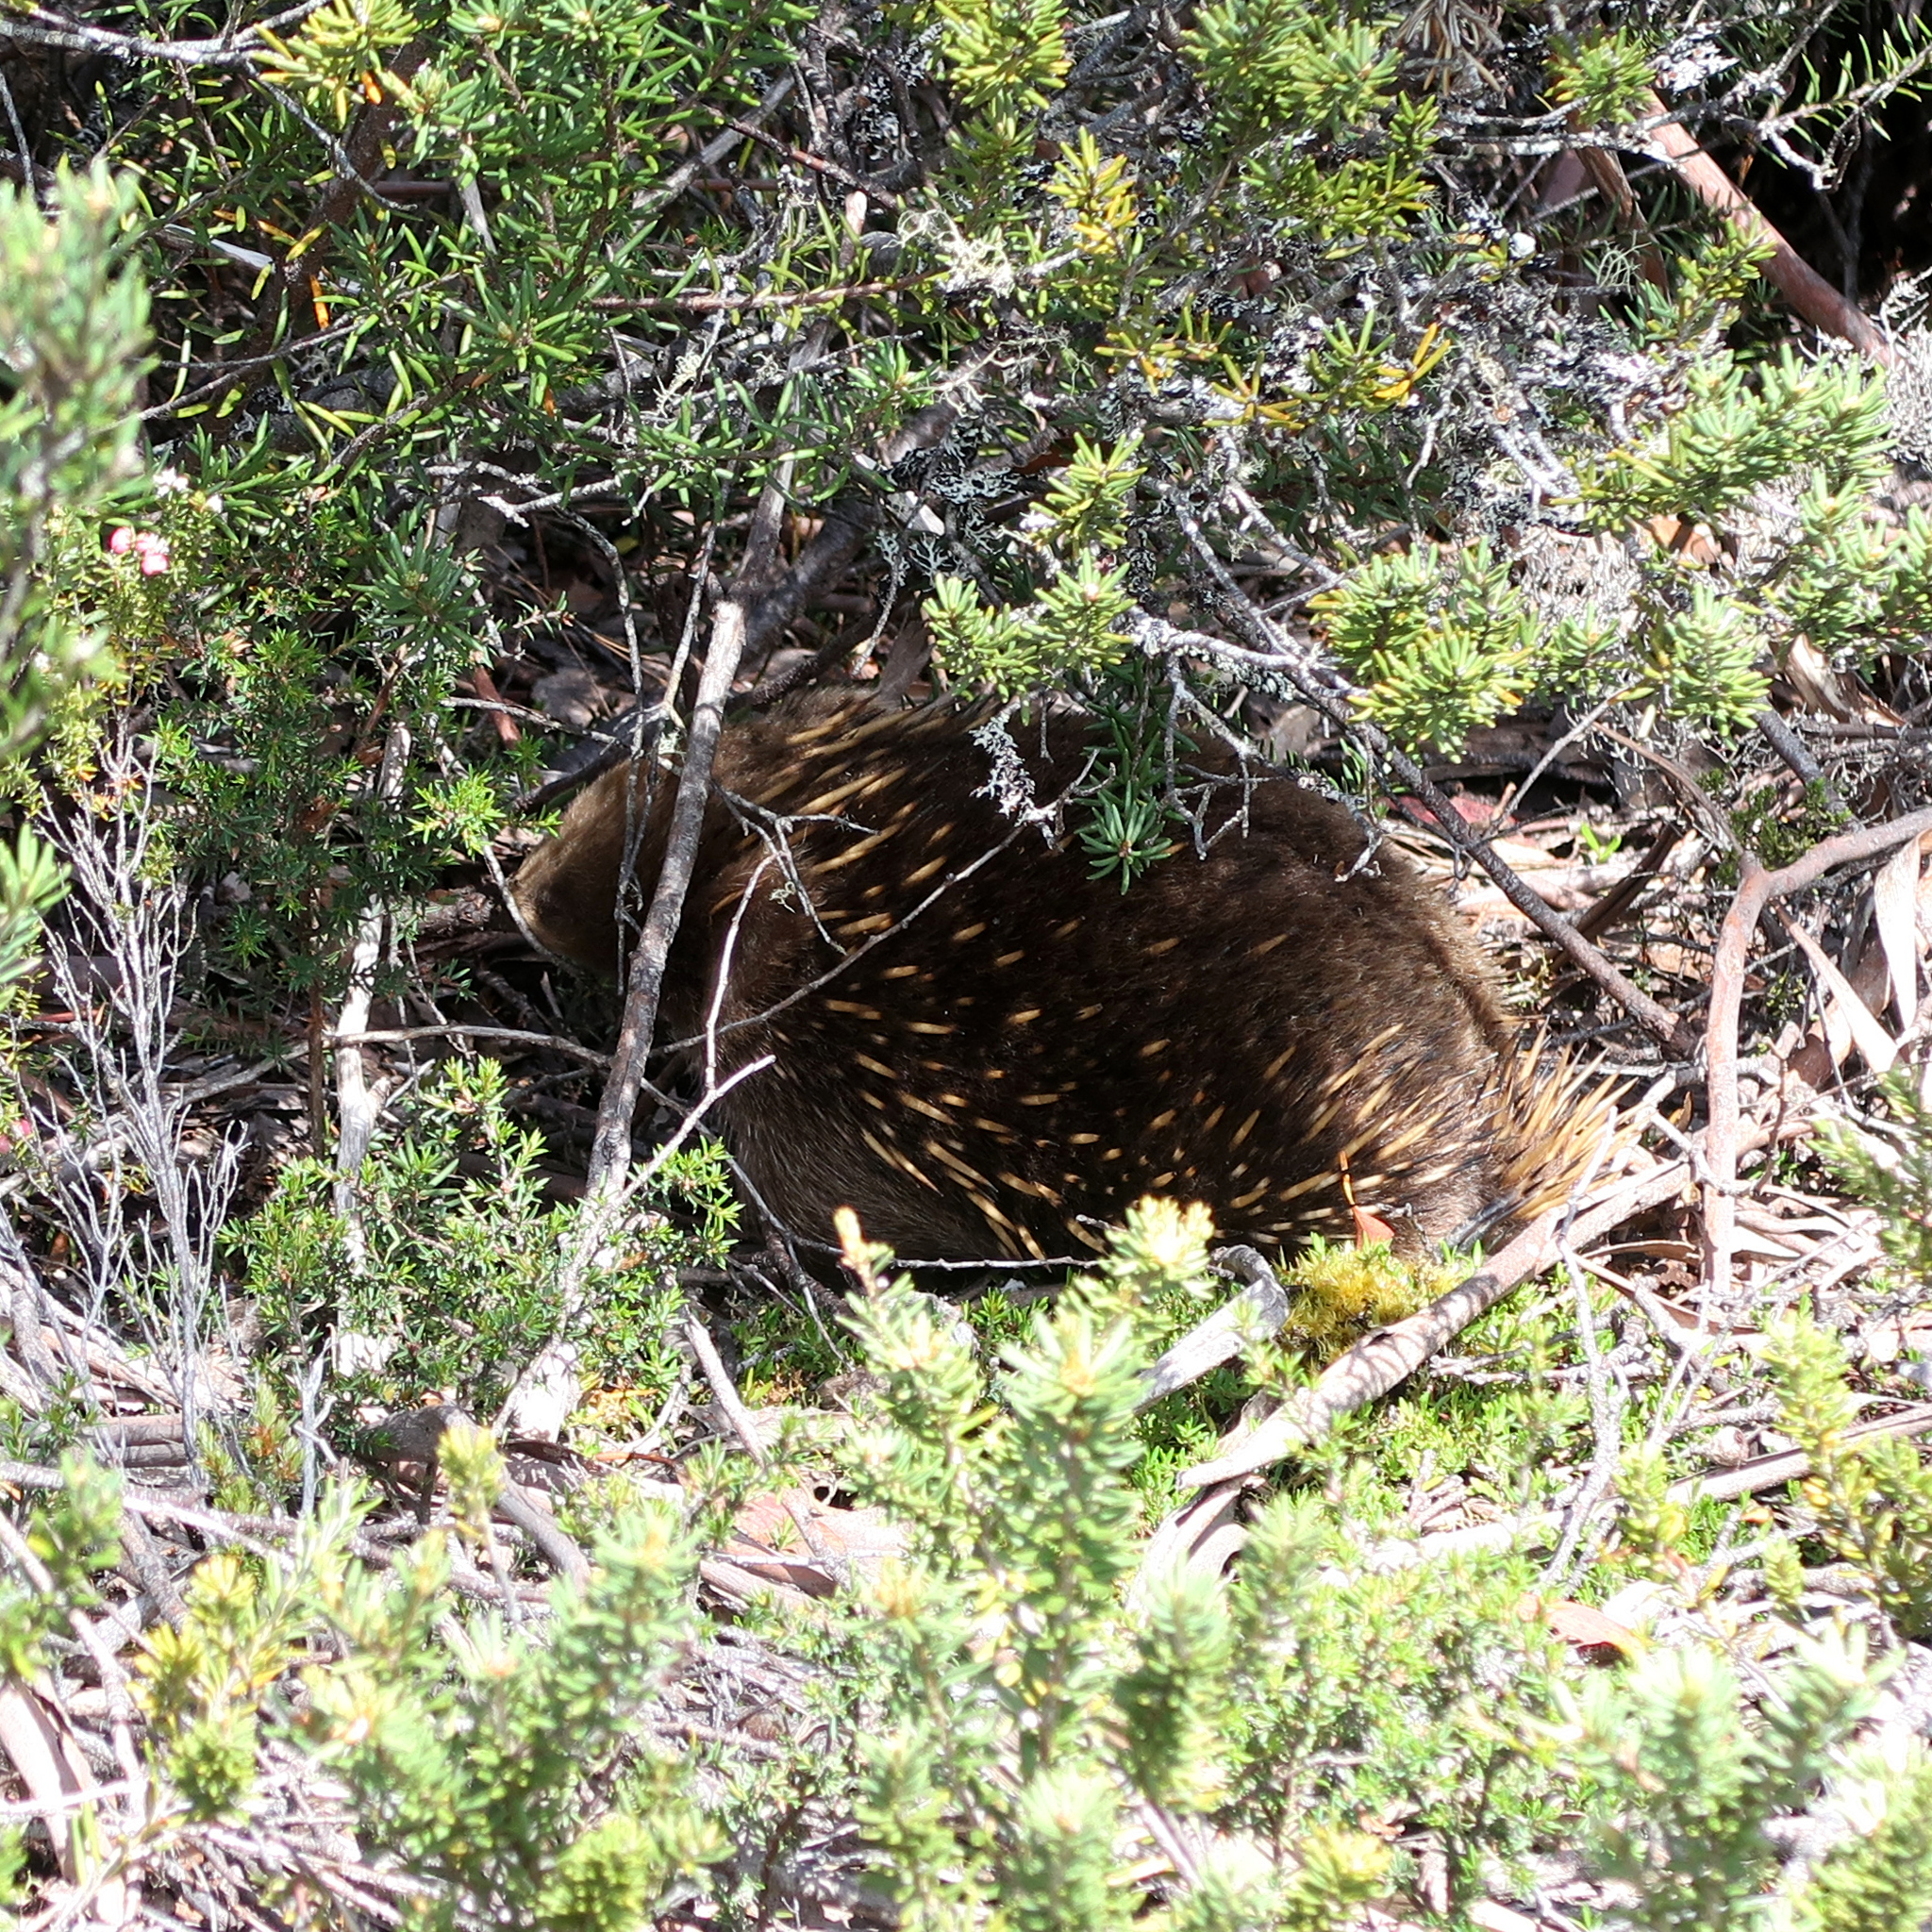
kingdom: Animalia
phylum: Chordata
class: Mammalia
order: Monotremata
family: Tachyglossidae
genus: Tachyglossus
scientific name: Tachyglossus aculeatus
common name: Short-beaked echidna
